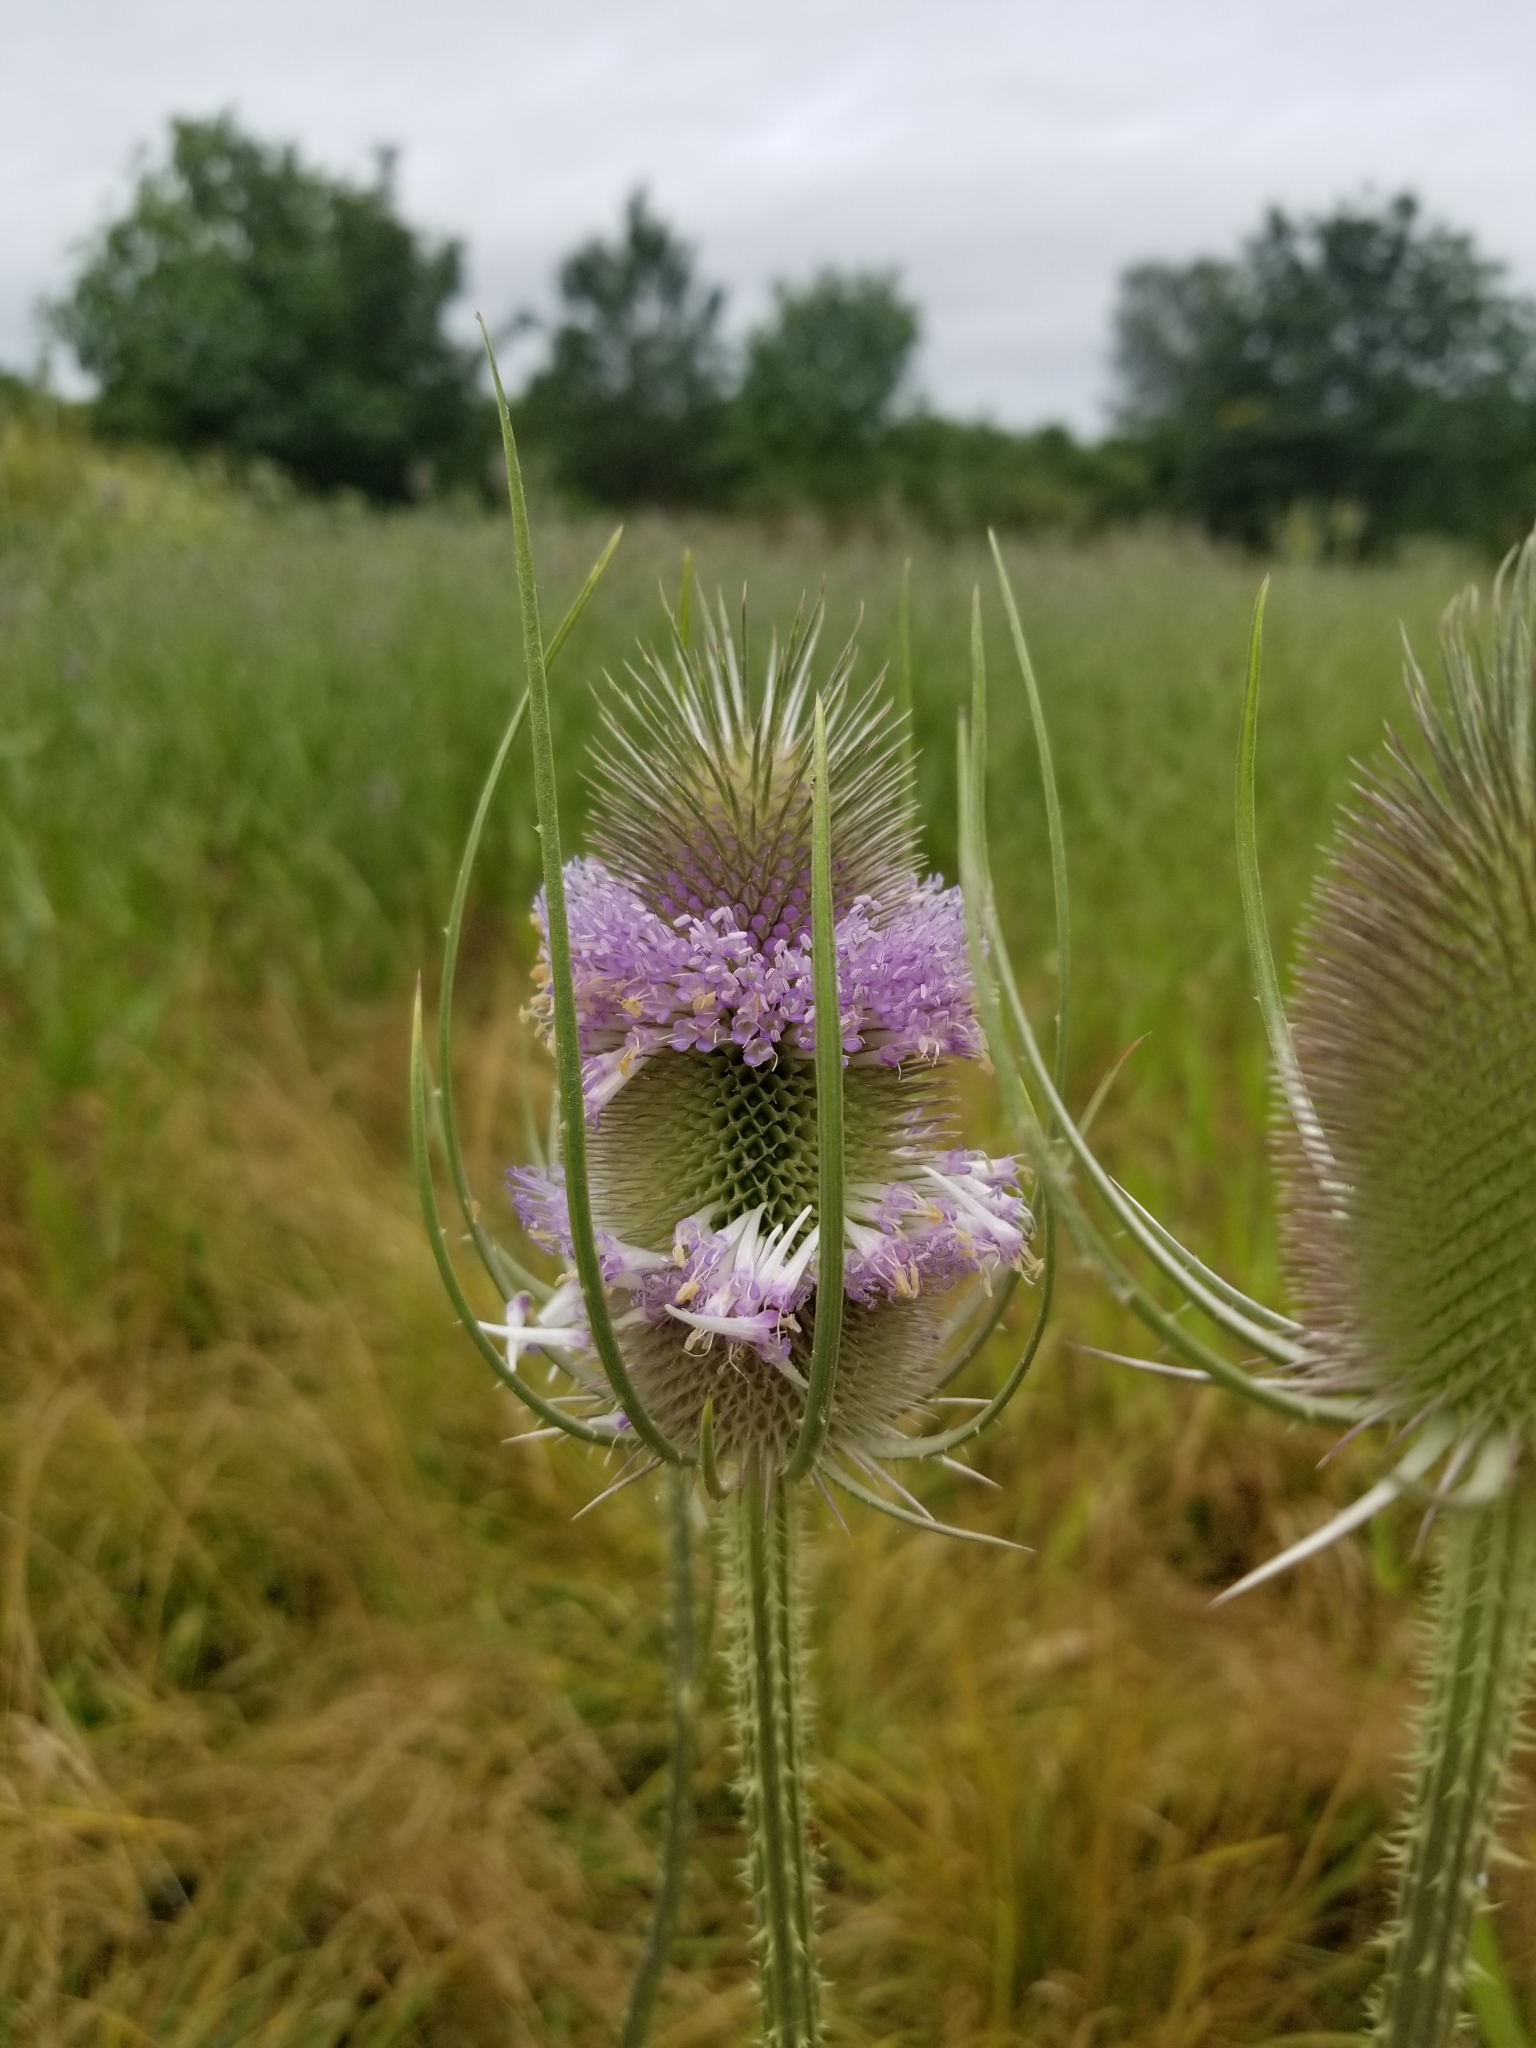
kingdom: Plantae
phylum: Tracheophyta
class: Magnoliopsida
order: Dipsacales
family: Caprifoliaceae
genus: Dipsacus
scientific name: Dipsacus fullonum
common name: Teasel
